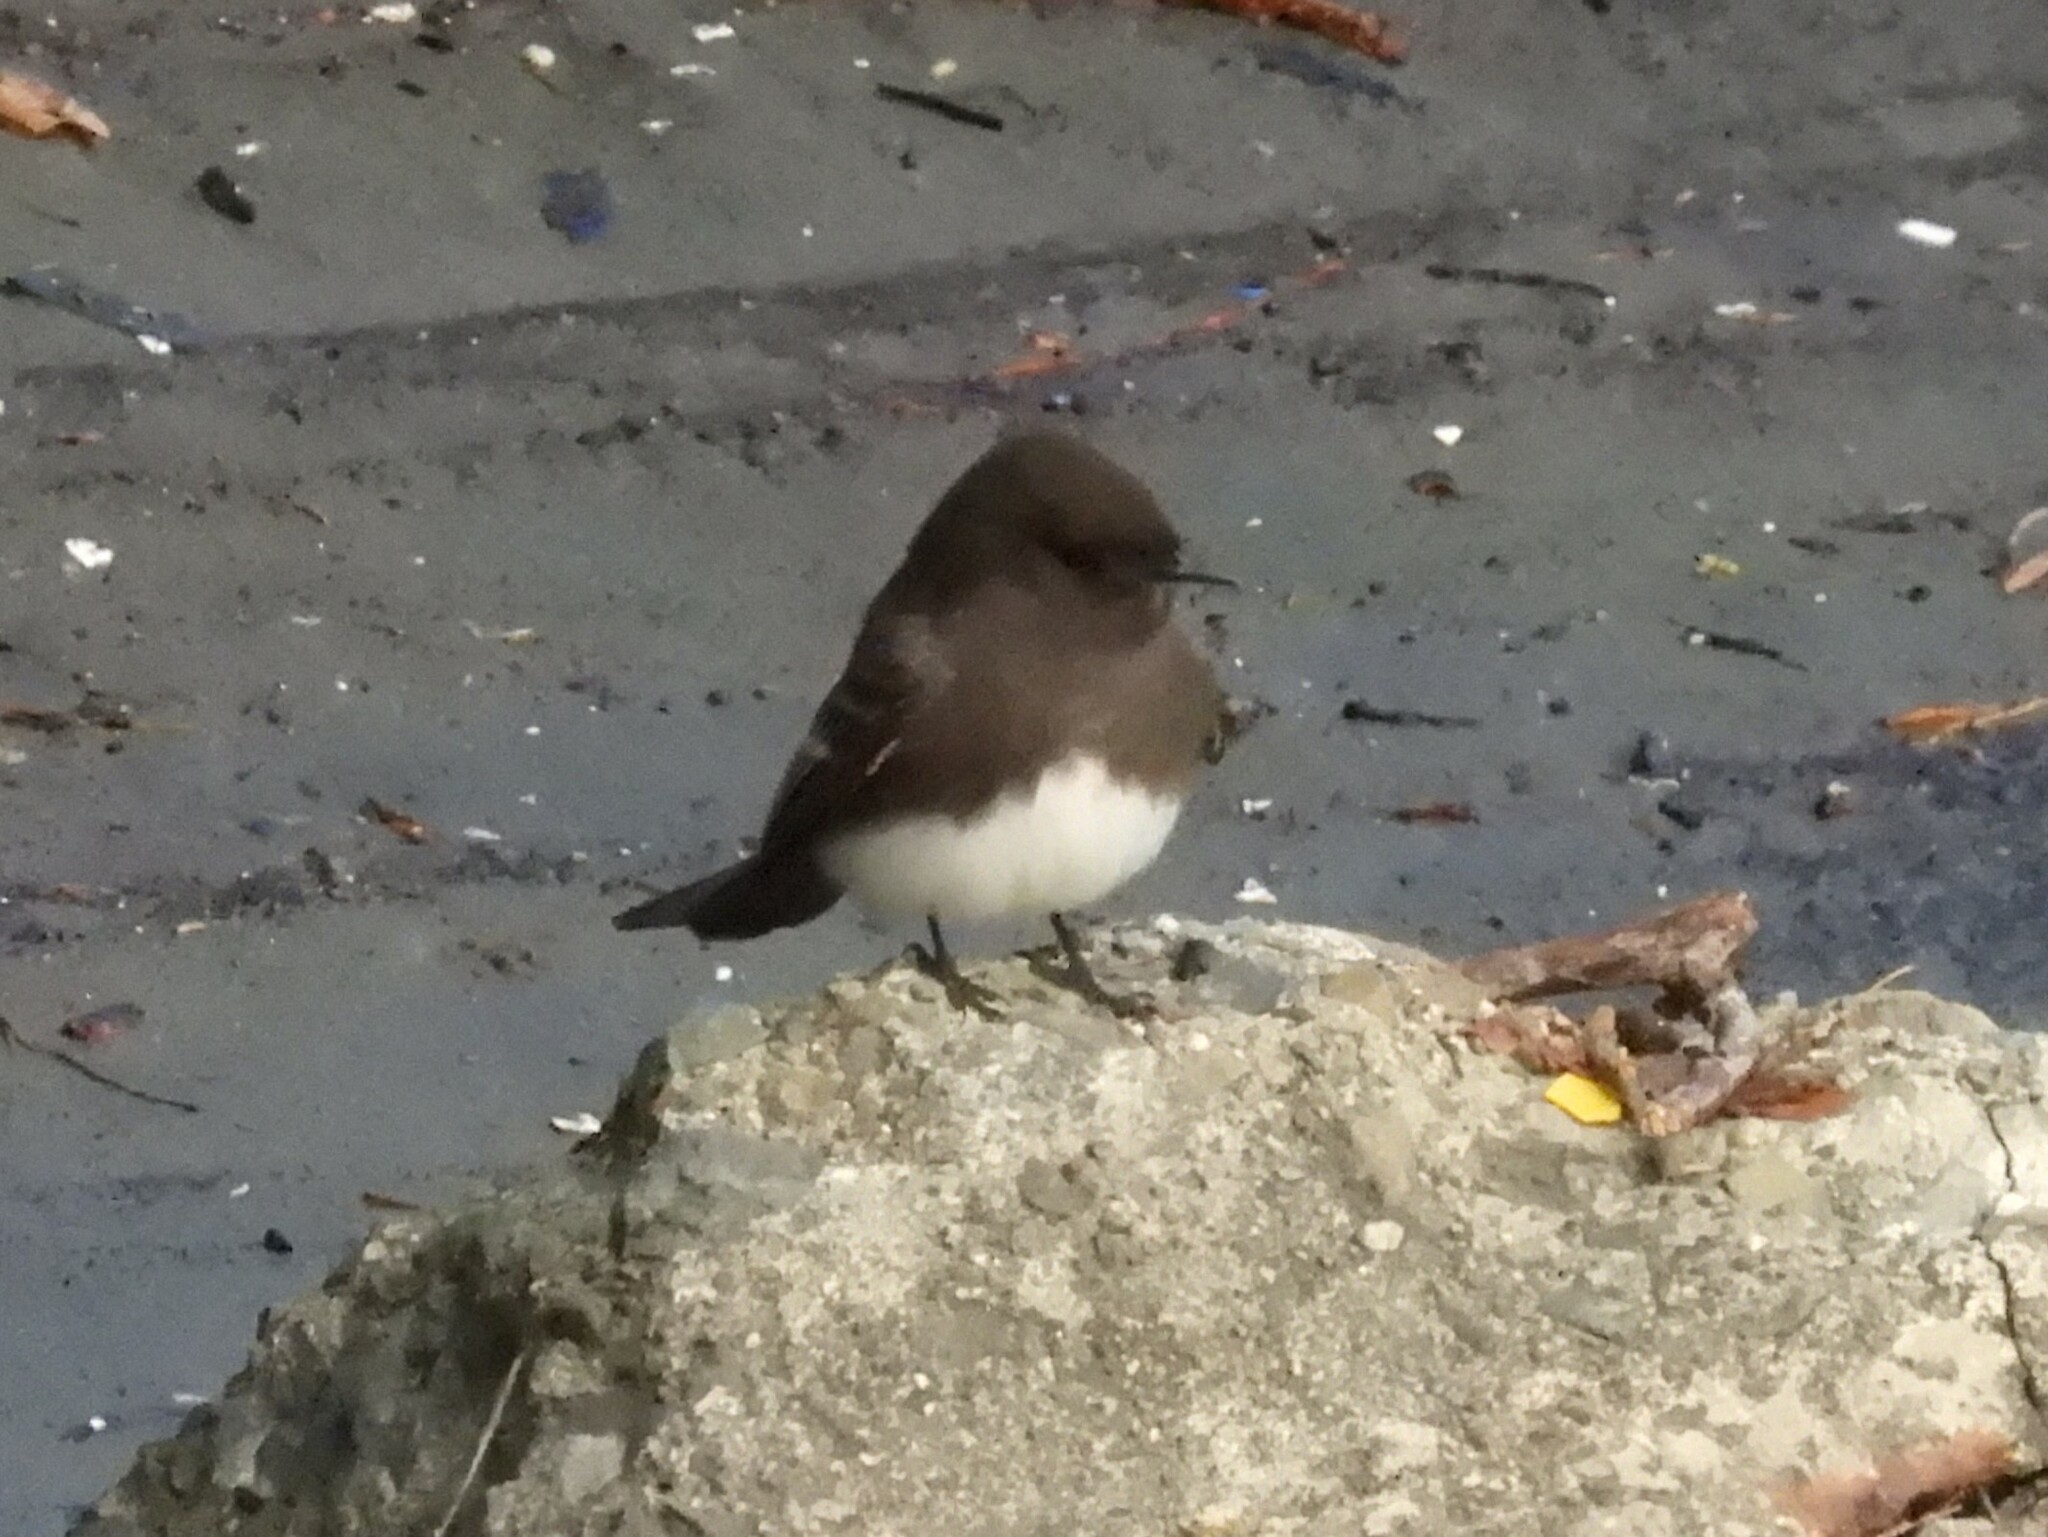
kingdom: Animalia
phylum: Chordata
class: Aves
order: Passeriformes
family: Tyrannidae
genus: Sayornis
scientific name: Sayornis nigricans
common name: Black phoebe
